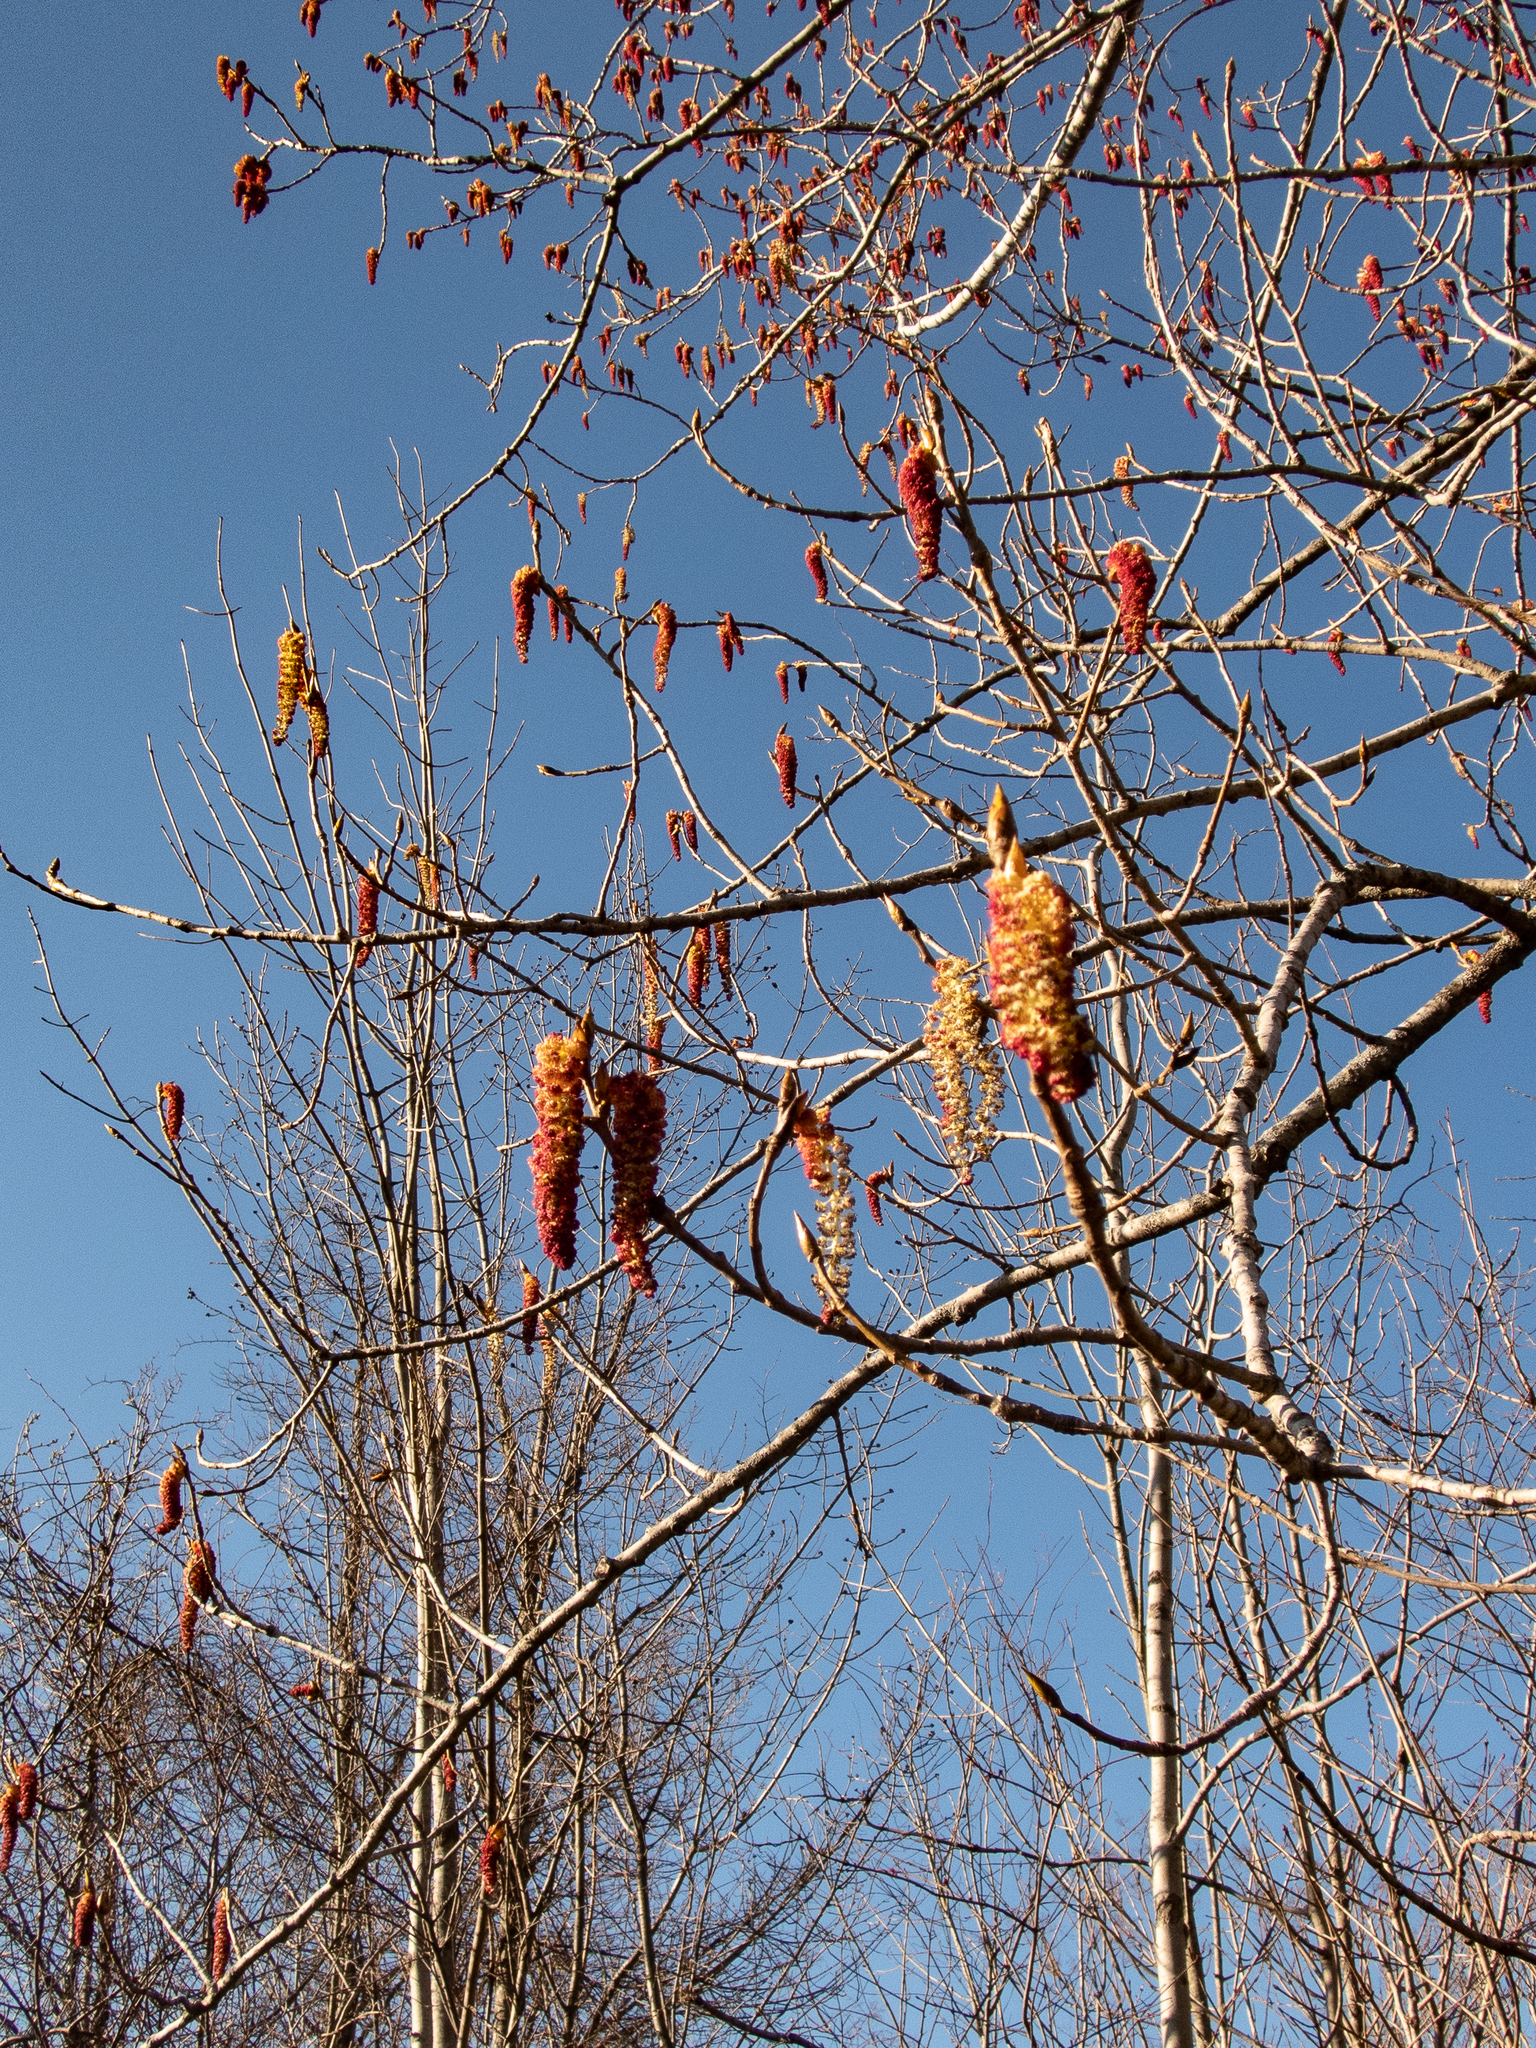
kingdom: Plantae
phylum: Tracheophyta
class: Magnoliopsida
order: Malpighiales
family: Salicaceae
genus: Populus
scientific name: Populus deltoides
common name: Eastern cottonwood
